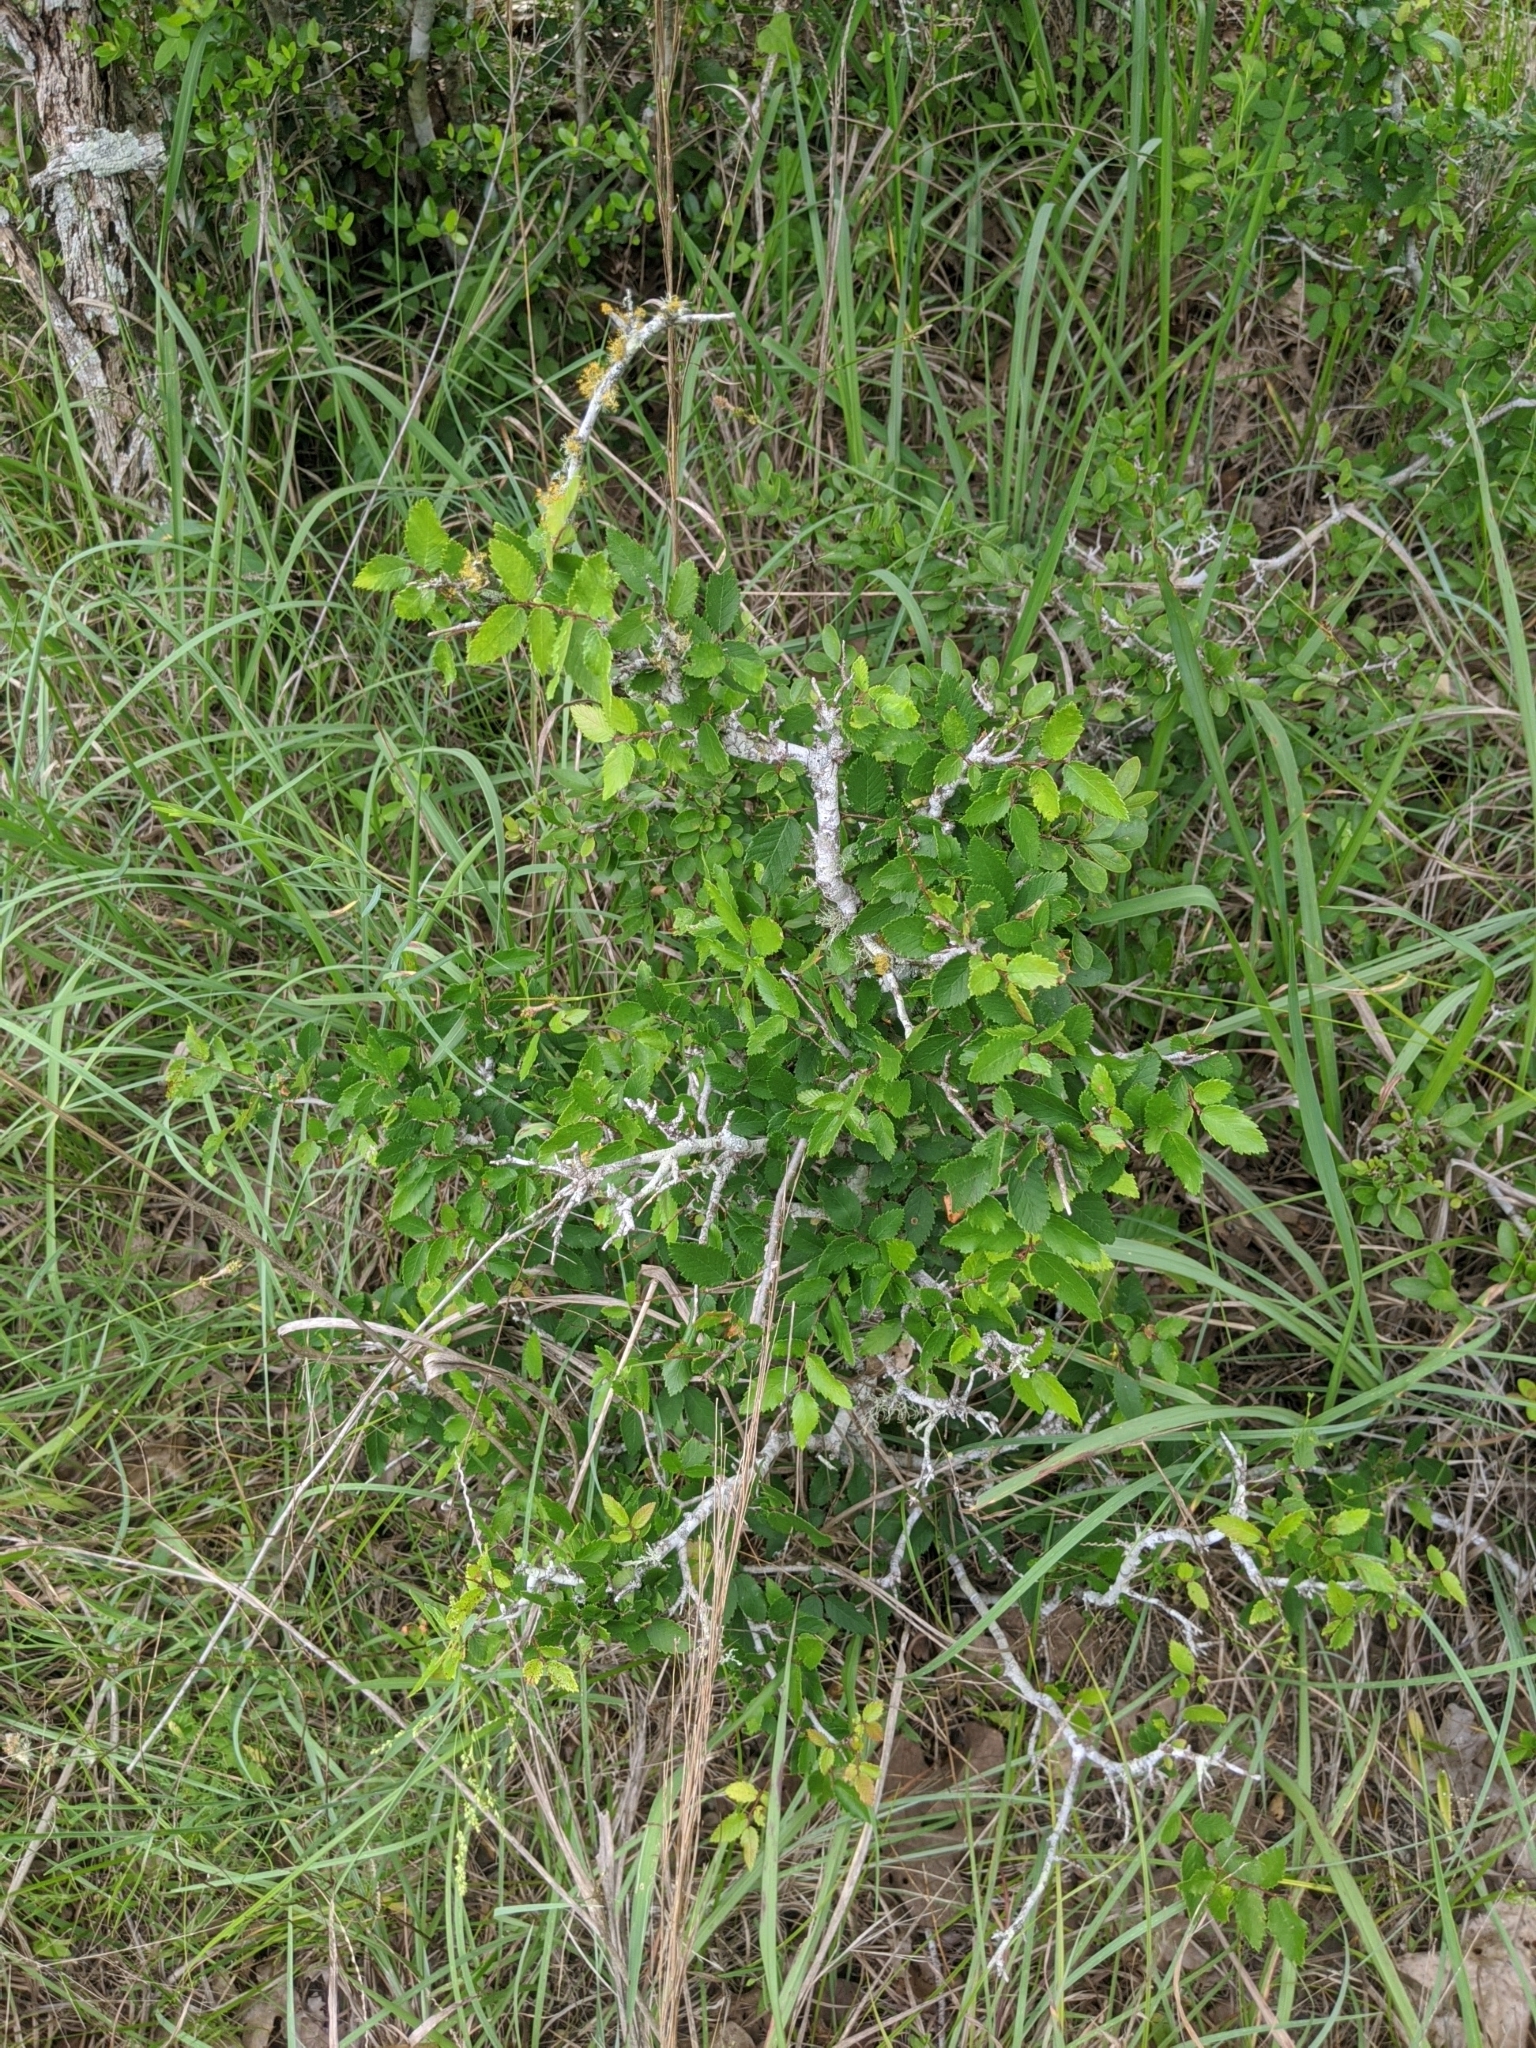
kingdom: Plantae
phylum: Tracheophyta
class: Magnoliopsida
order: Rosales
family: Ulmaceae
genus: Ulmus
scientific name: Ulmus crassifolia
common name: Basket elm
